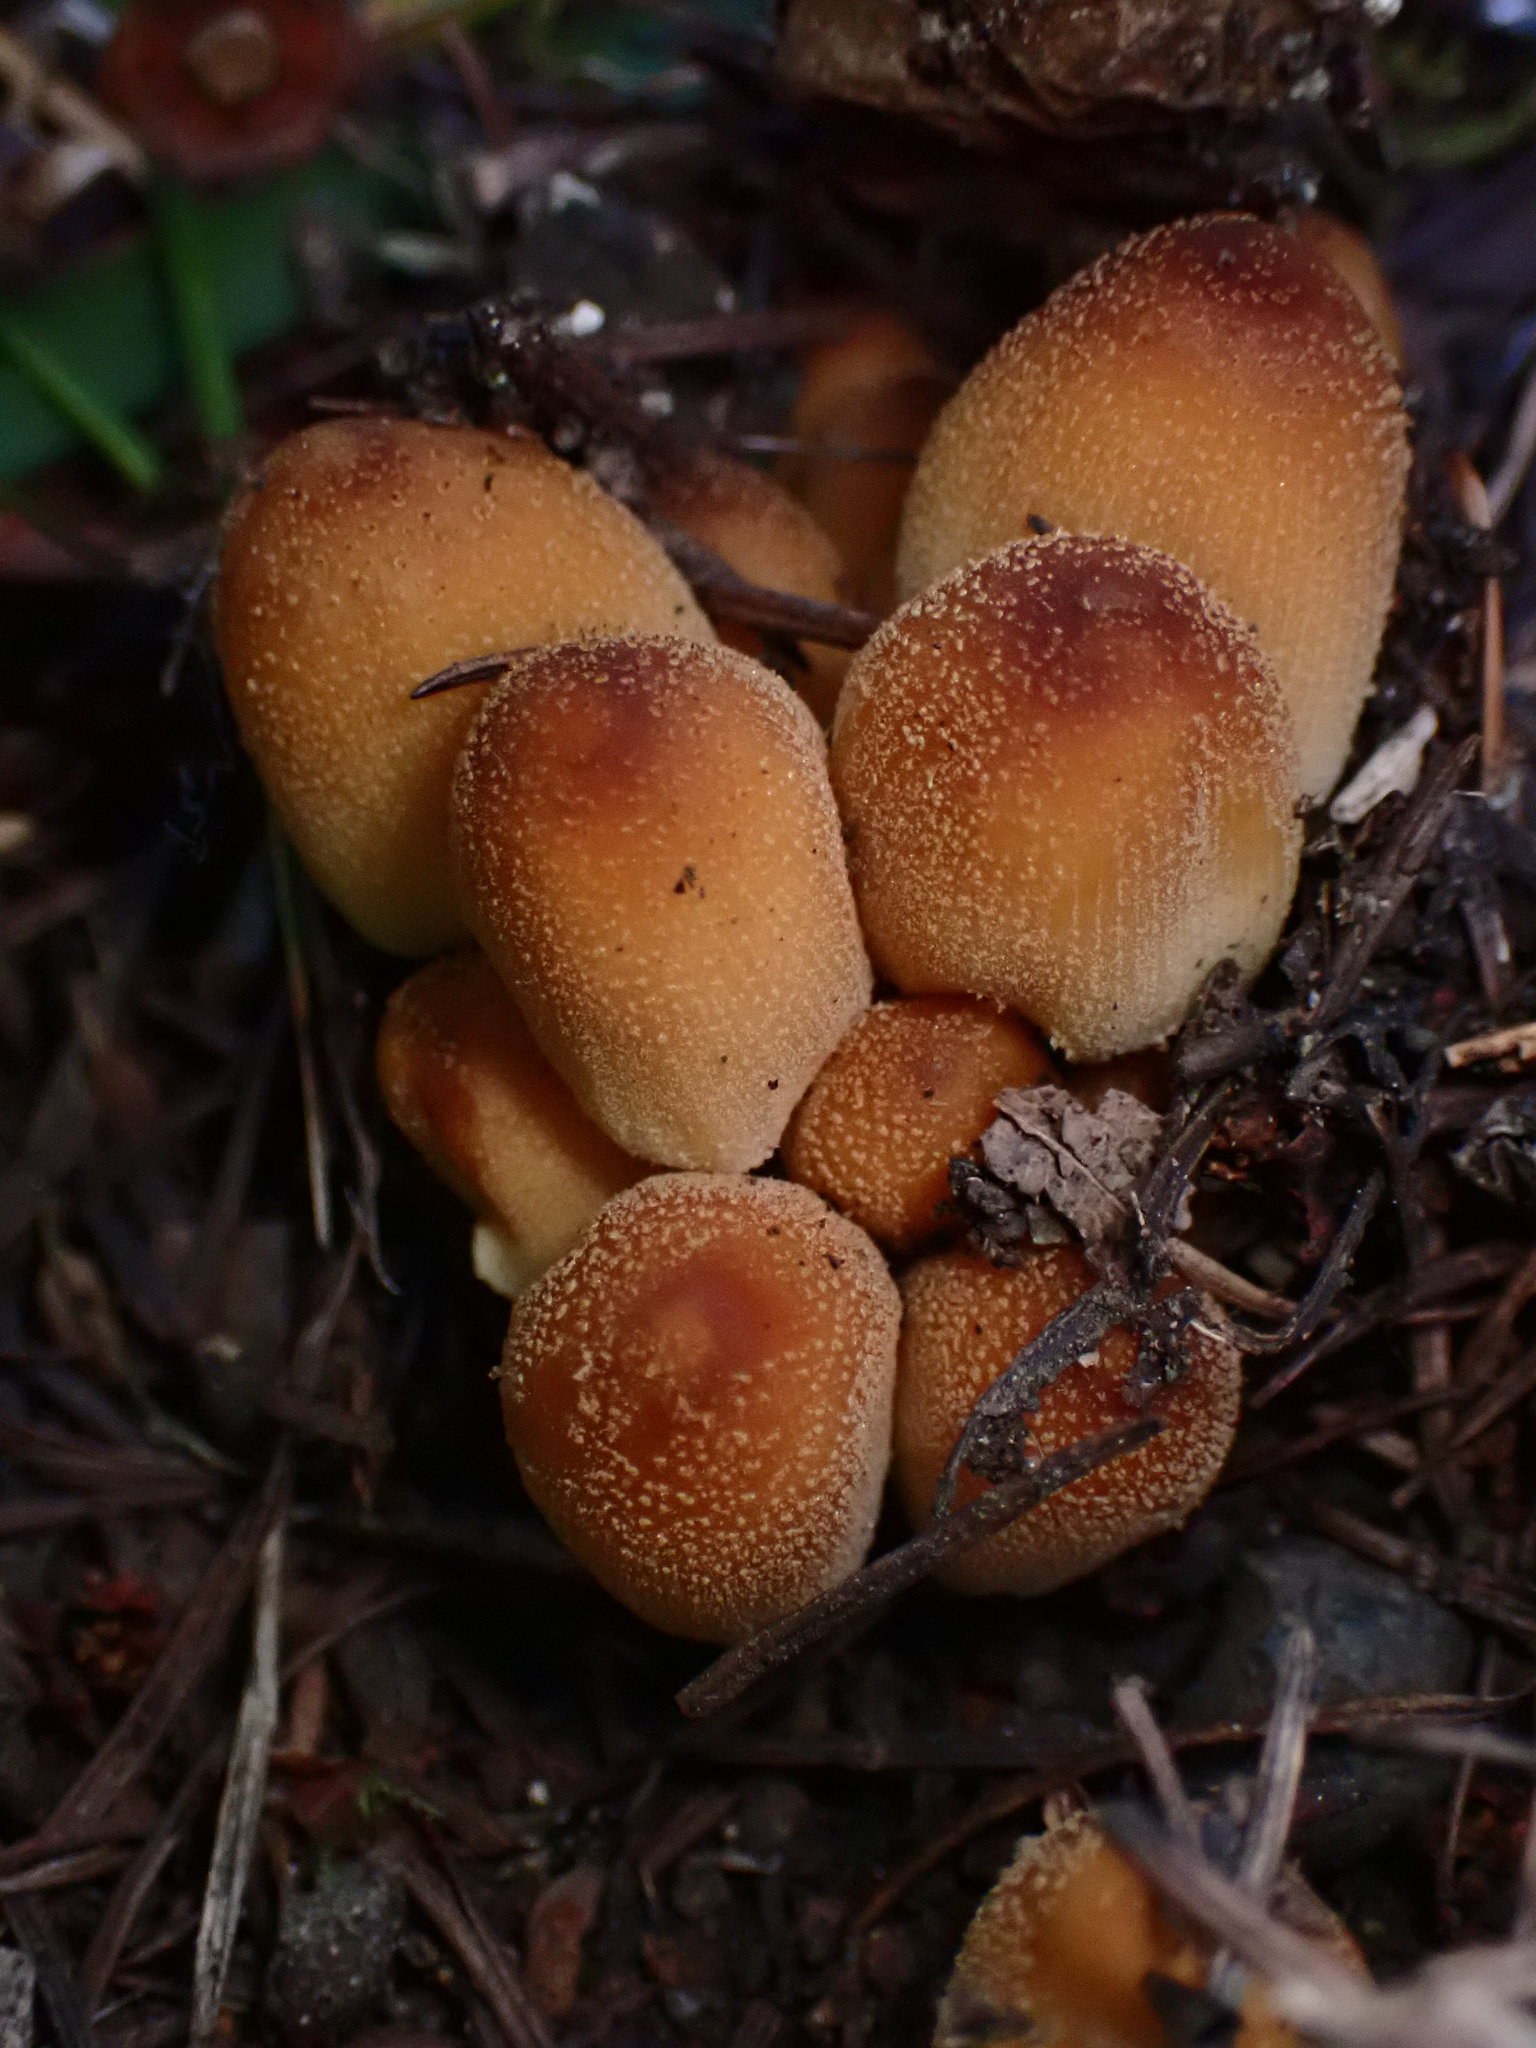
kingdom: Fungi
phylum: Basidiomycota
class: Agaricomycetes
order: Agaricales
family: Psathyrellaceae
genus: Coprinellus
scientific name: Coprinellus micaceus
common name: Glistening ink-cap
